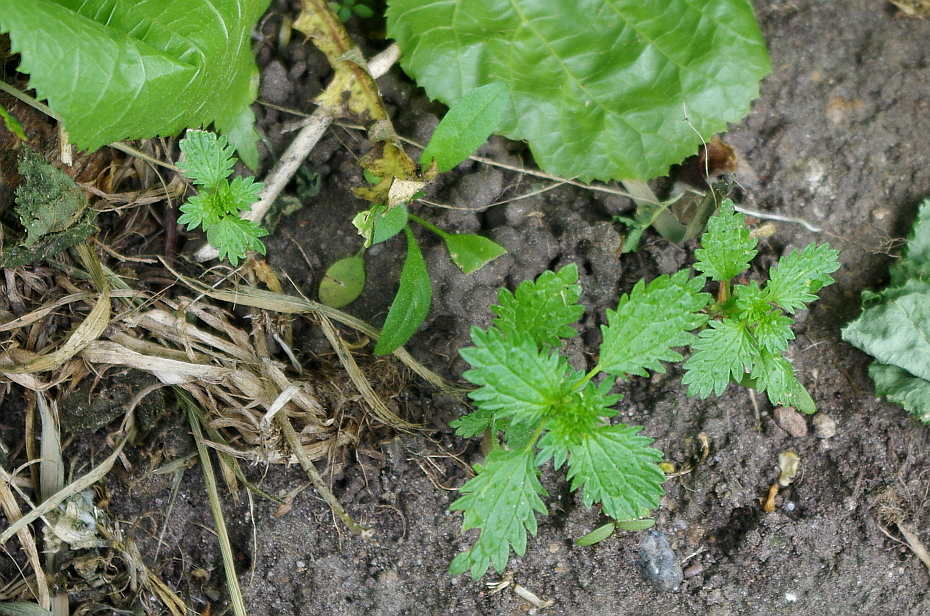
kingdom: Plantae
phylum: Tracheophyta
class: Magnoliopsida
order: Rosales
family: Urticaceae
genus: Urtica
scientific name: Urtica urens
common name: Dwarf nettle
